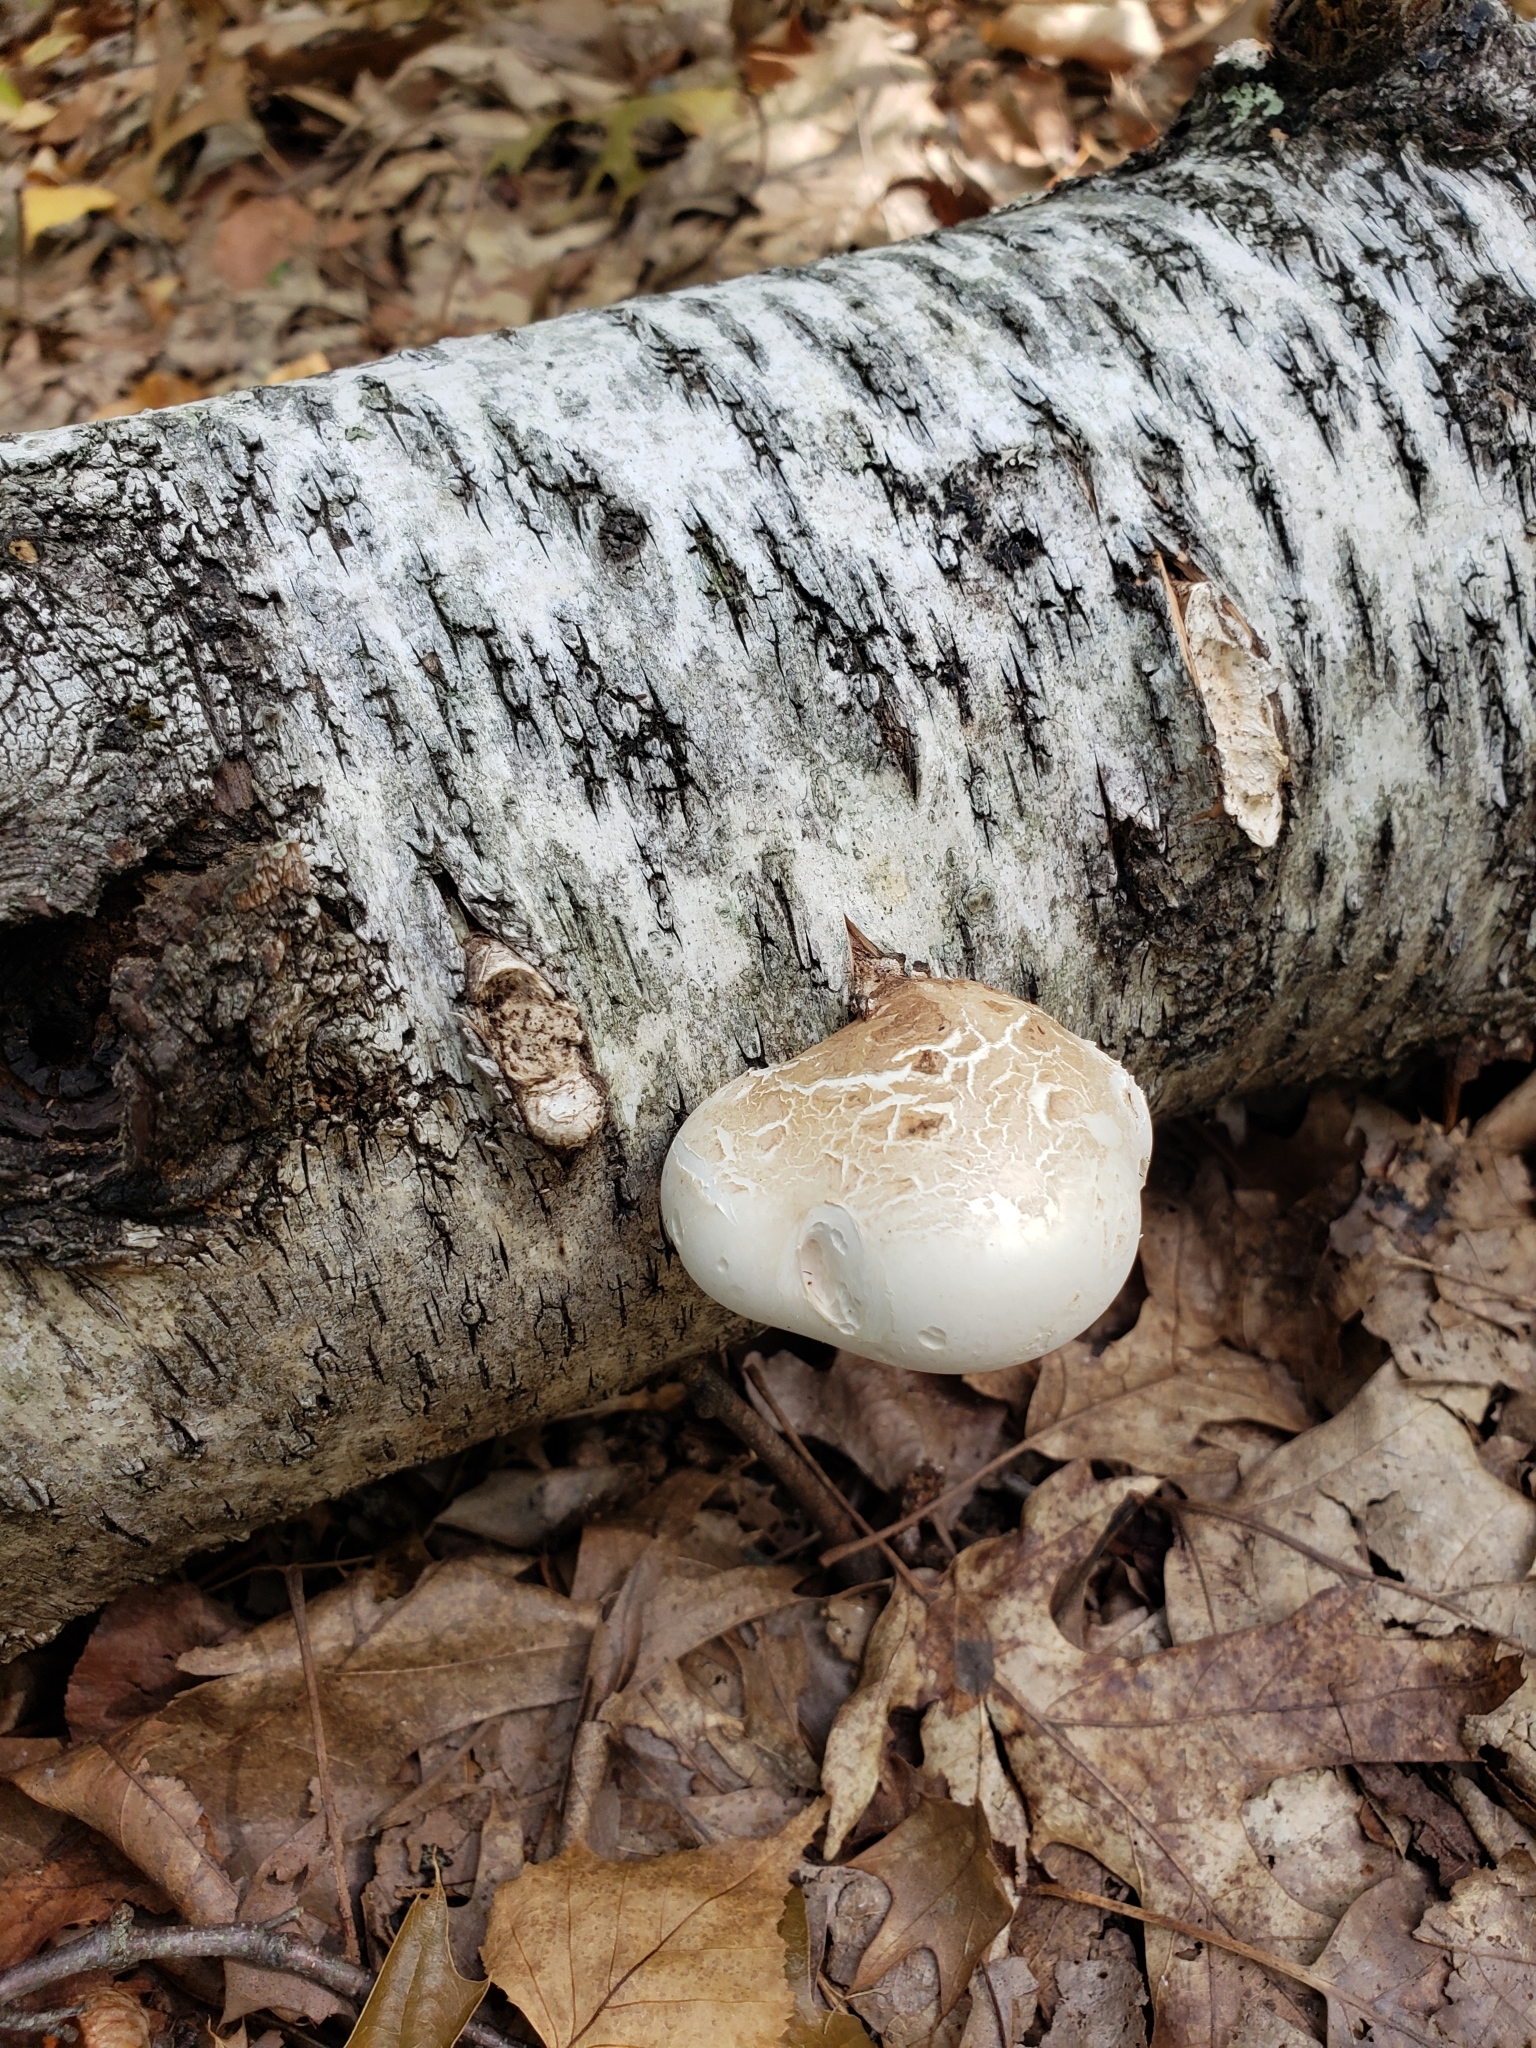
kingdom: Fungi
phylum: Basidiomycota
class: Agaricomycetes
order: Polyporales
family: Fomitopsidaceae
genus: Fomitopsis
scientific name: Fomitopsis betulina
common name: Birch polypore
